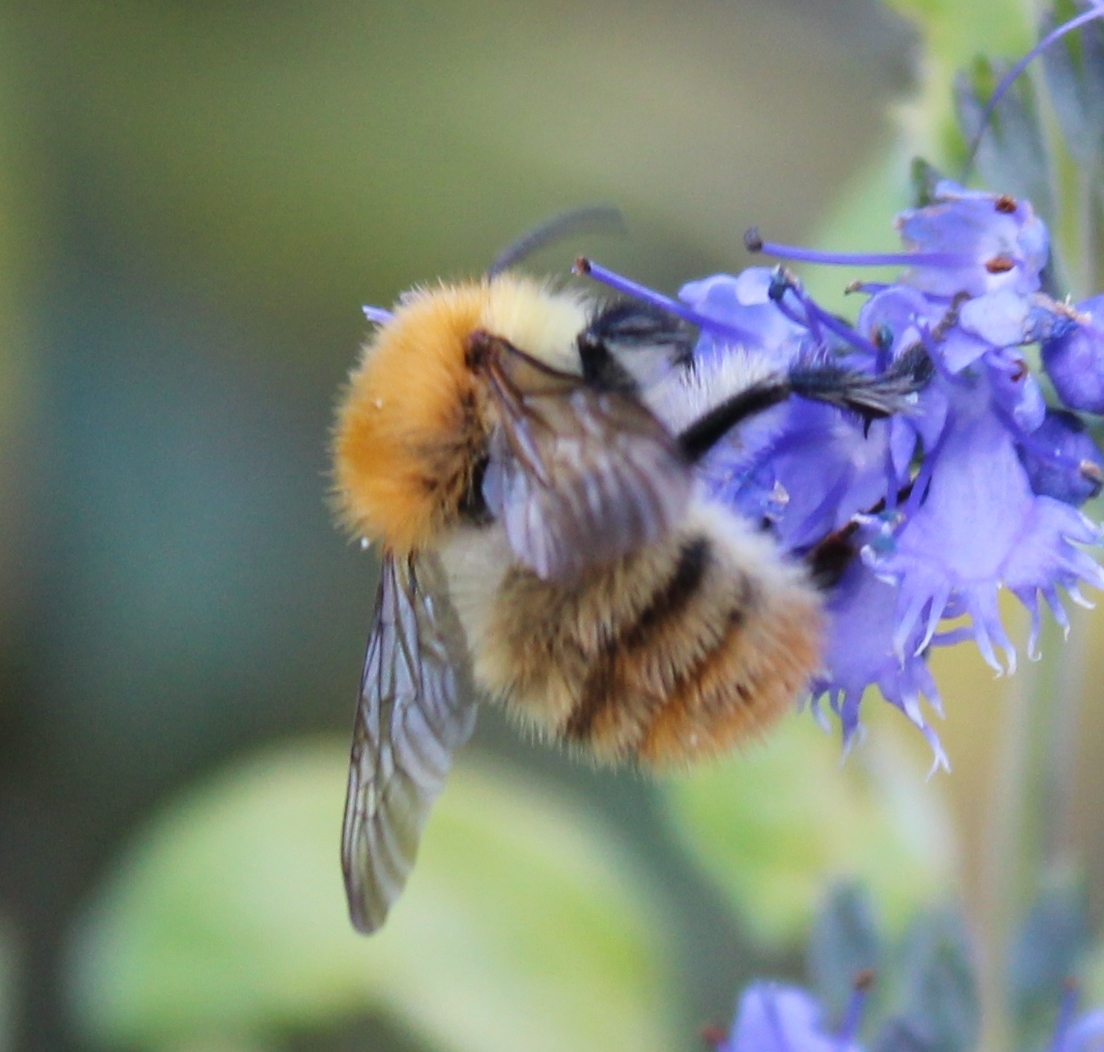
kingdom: Animalia
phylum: Arthropoda
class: Insecta
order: Hymenoptera
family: Apidae
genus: Bombus
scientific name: Bombus pascuorum
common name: Common carder bee
